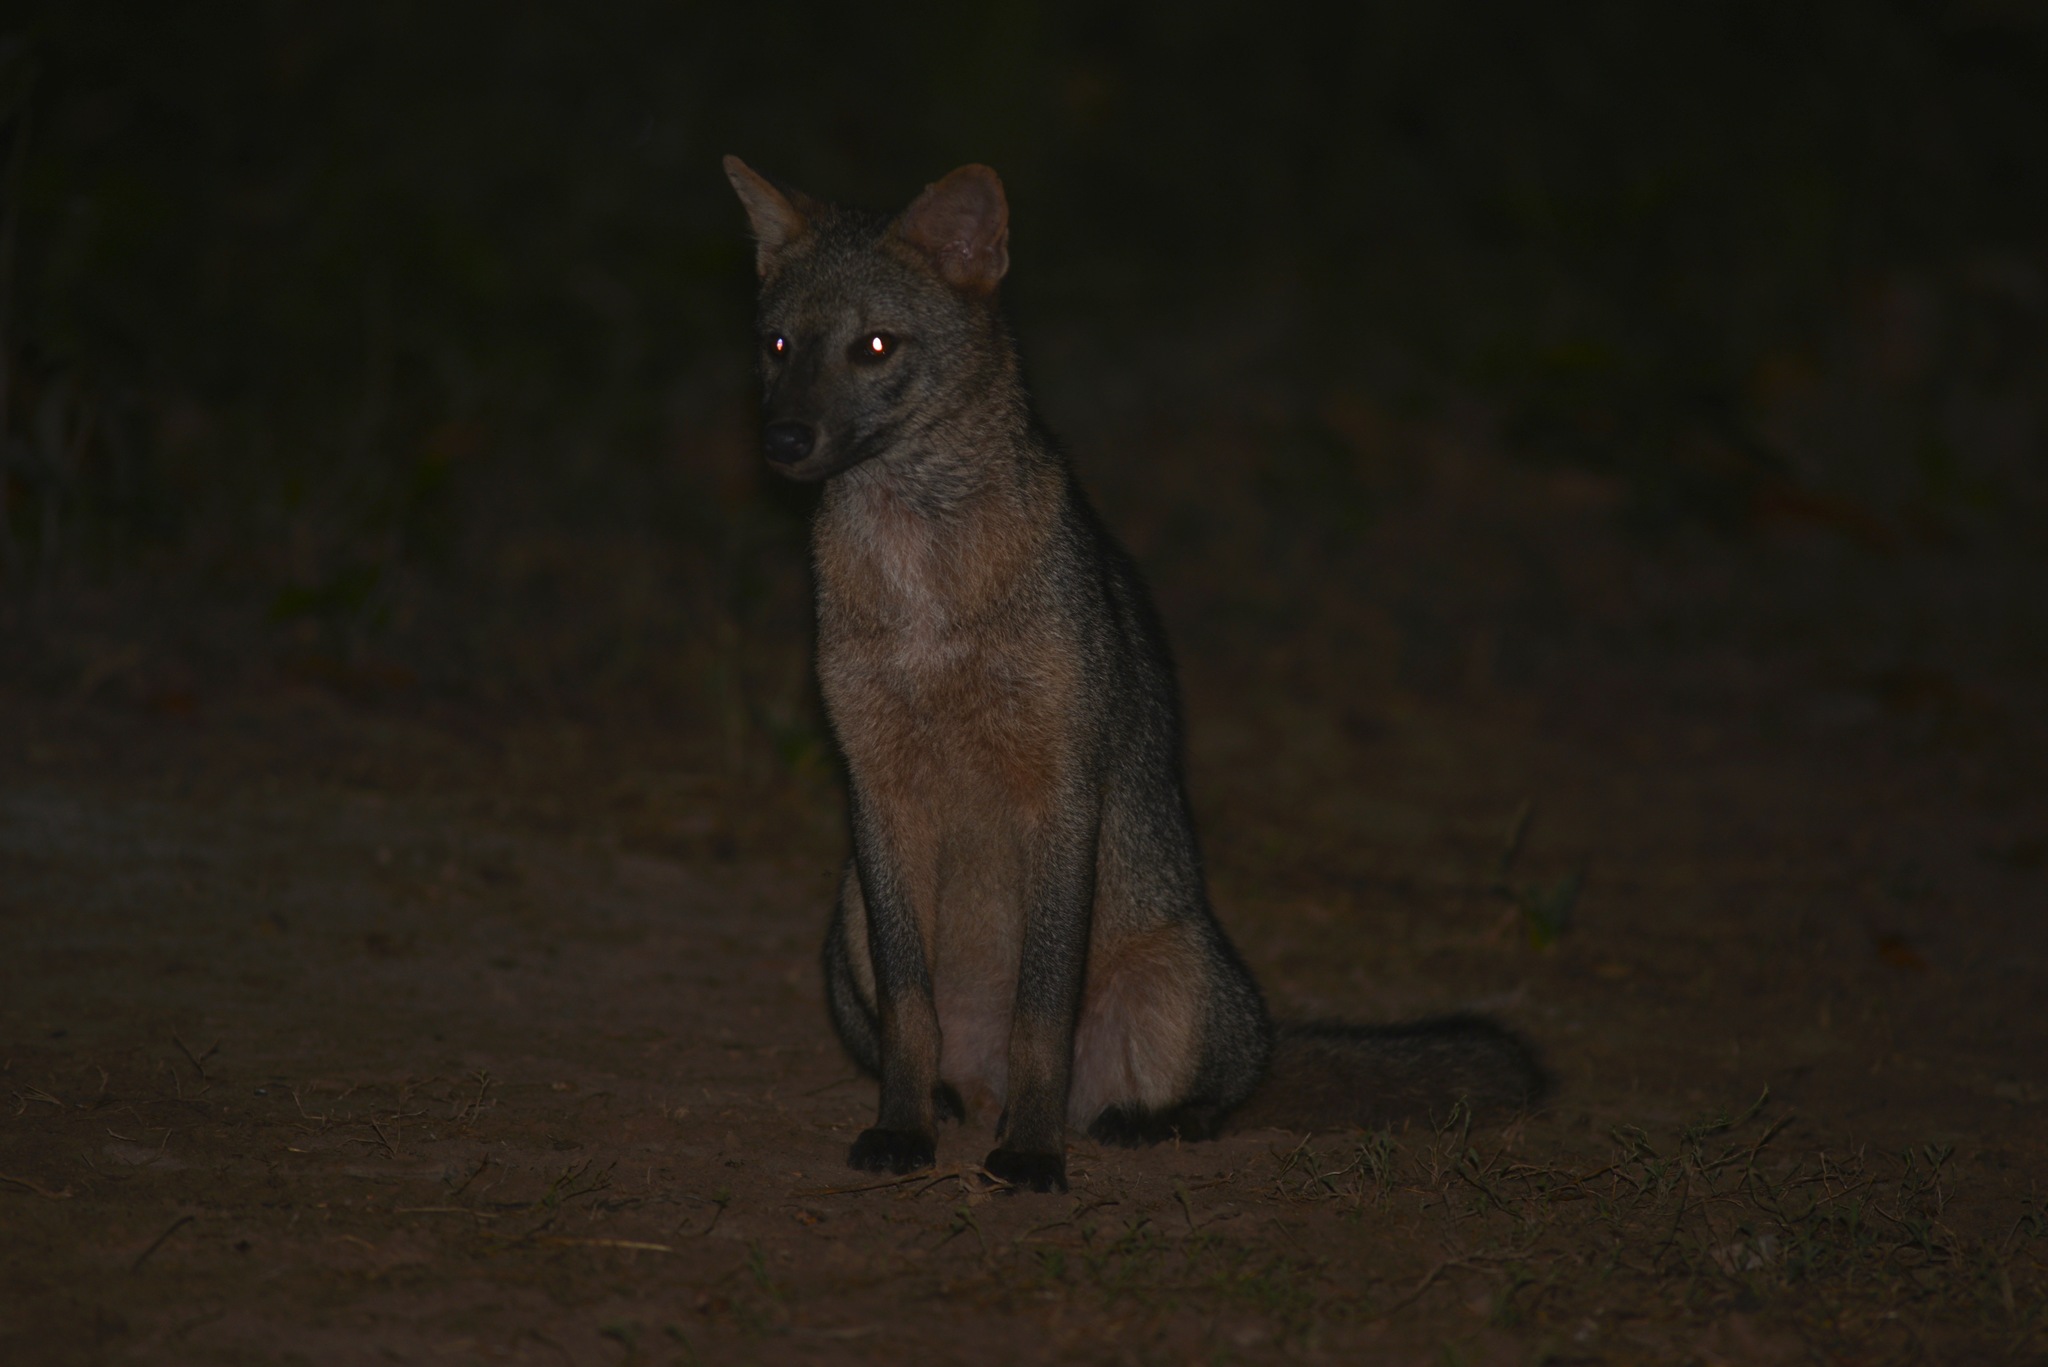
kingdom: Animalia
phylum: Chordata
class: Mammalia
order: Carnivora
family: Canidae
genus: Cerdocyon
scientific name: Cerdocyon thous
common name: Crab-eating fox
